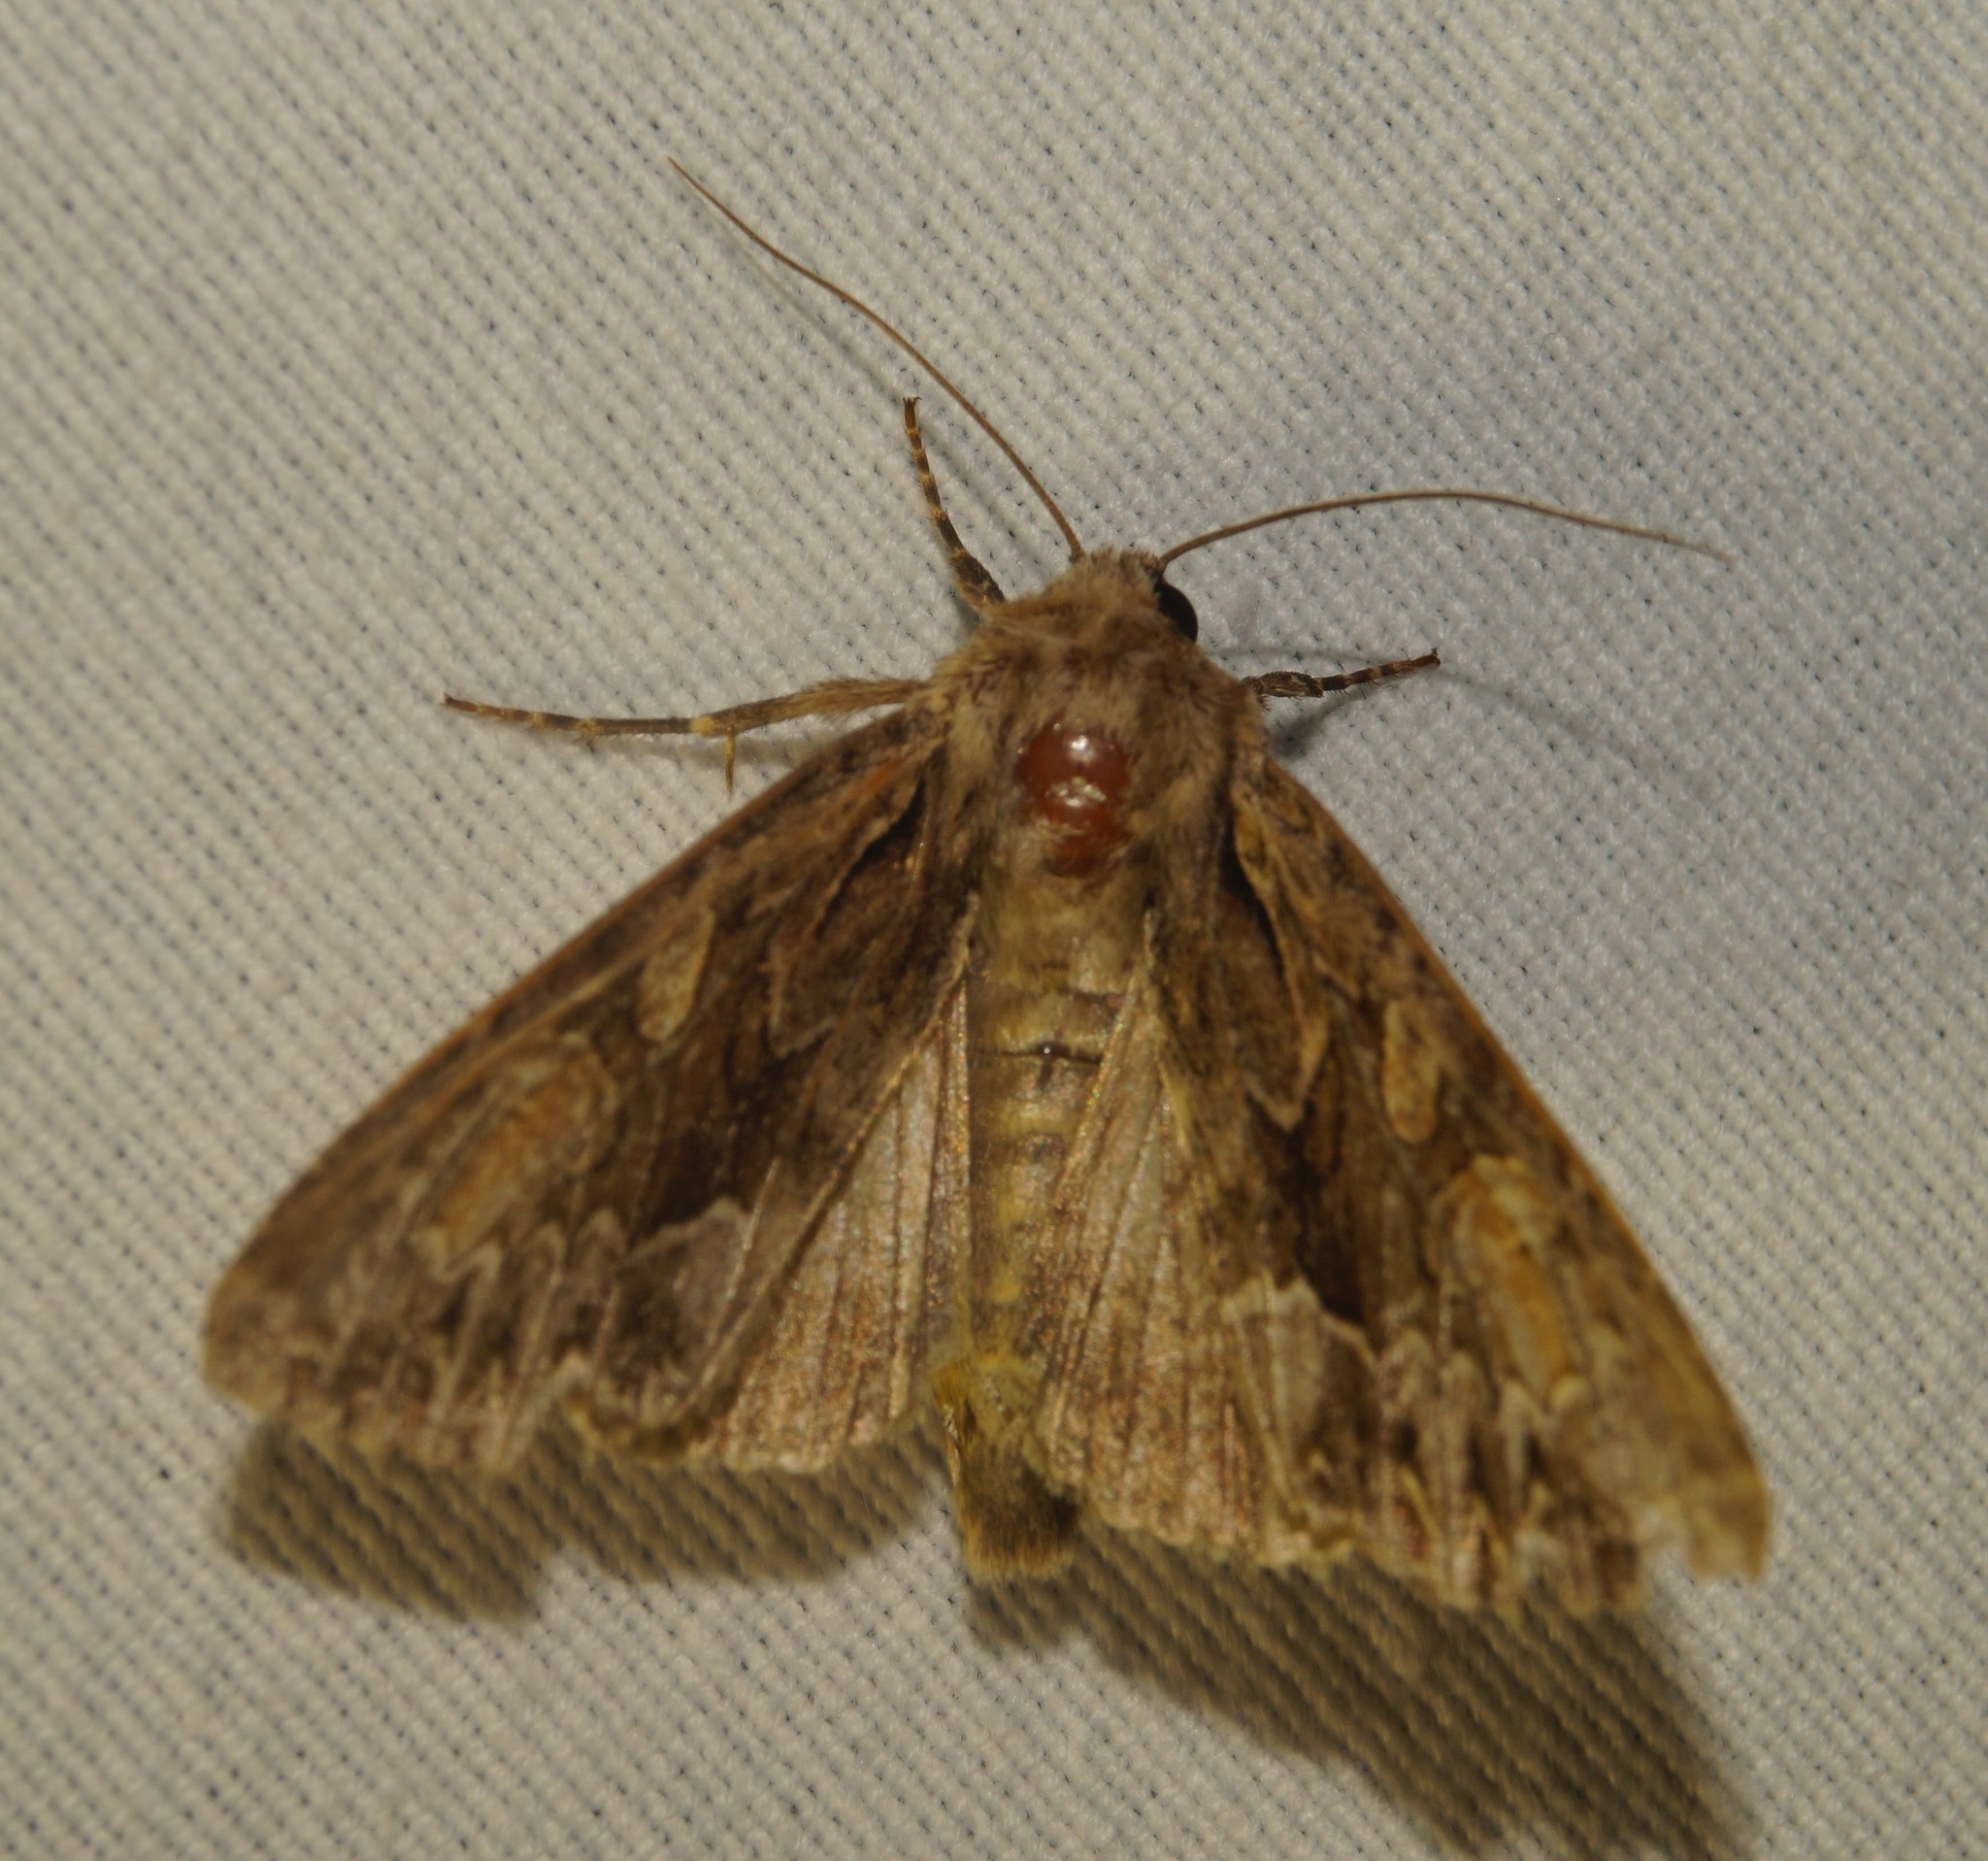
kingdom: Animalia
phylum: Arthropoda
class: Insecta
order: Lepidoptera
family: Noctuidae
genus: Apamea
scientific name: Apamea monoglypha
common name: Dark arches
